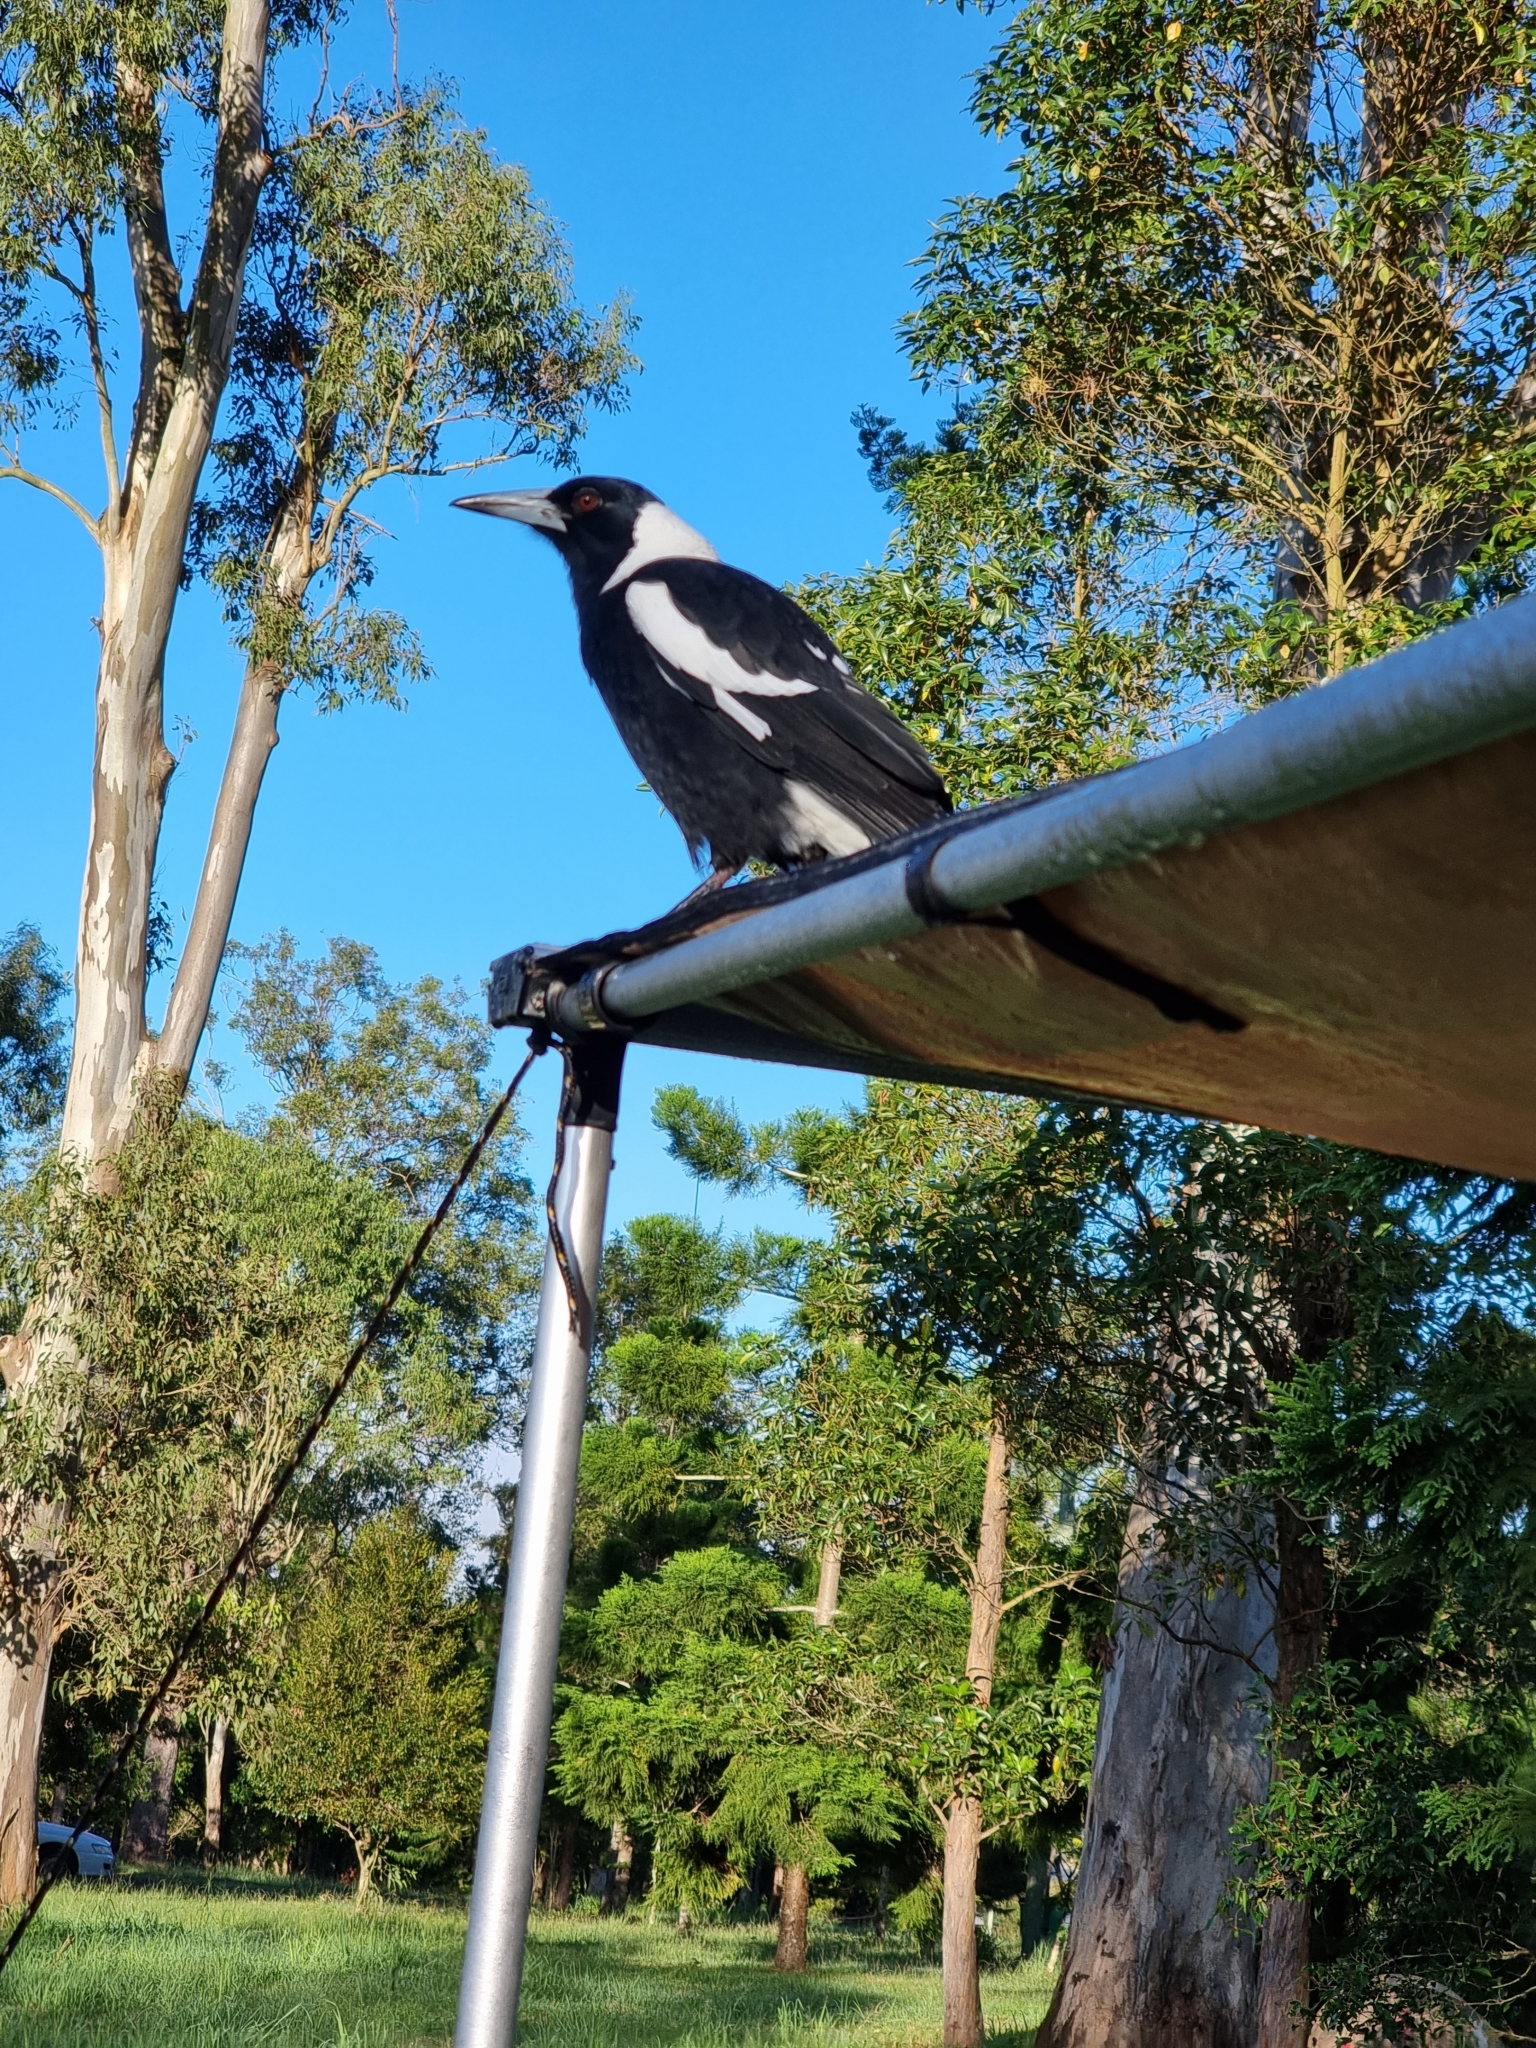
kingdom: Animalia
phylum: Chordata
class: Aves
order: Passeriformes
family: Cracticidae
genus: Gymnorhina
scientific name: Gymnorhina tibicen
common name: Australian magpie
